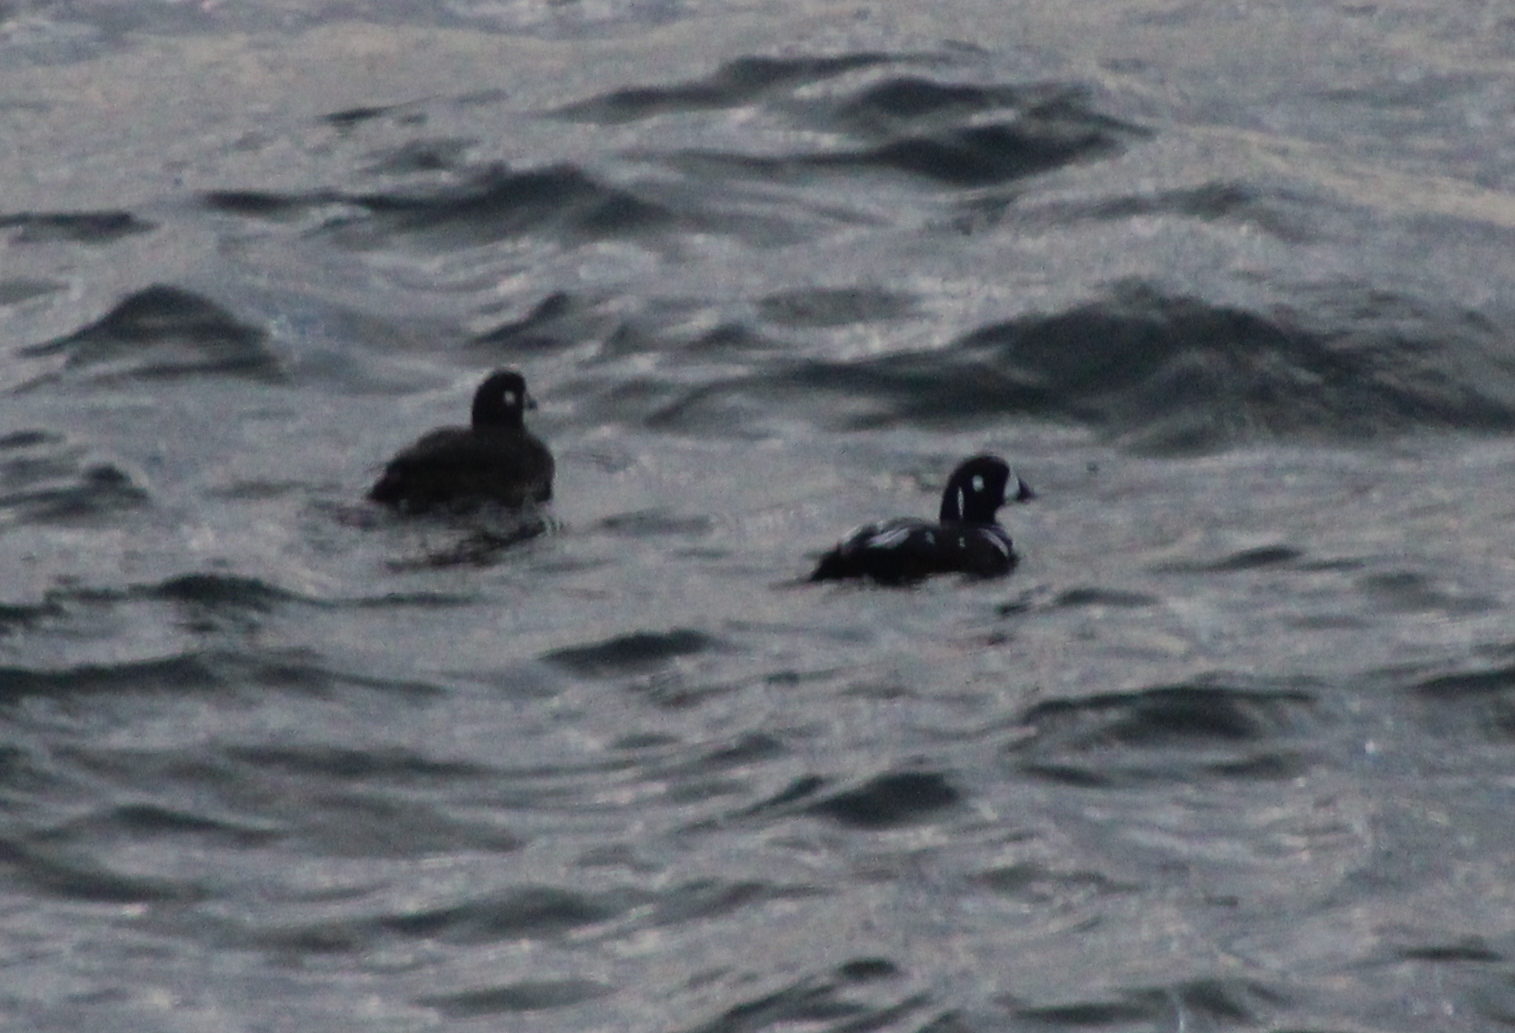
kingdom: Animalia
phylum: Chordata
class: Aves
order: Anseriformes
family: Anatidae
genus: Histrionicus
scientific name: Histrionicus histrionicus
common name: Harlequin duck
